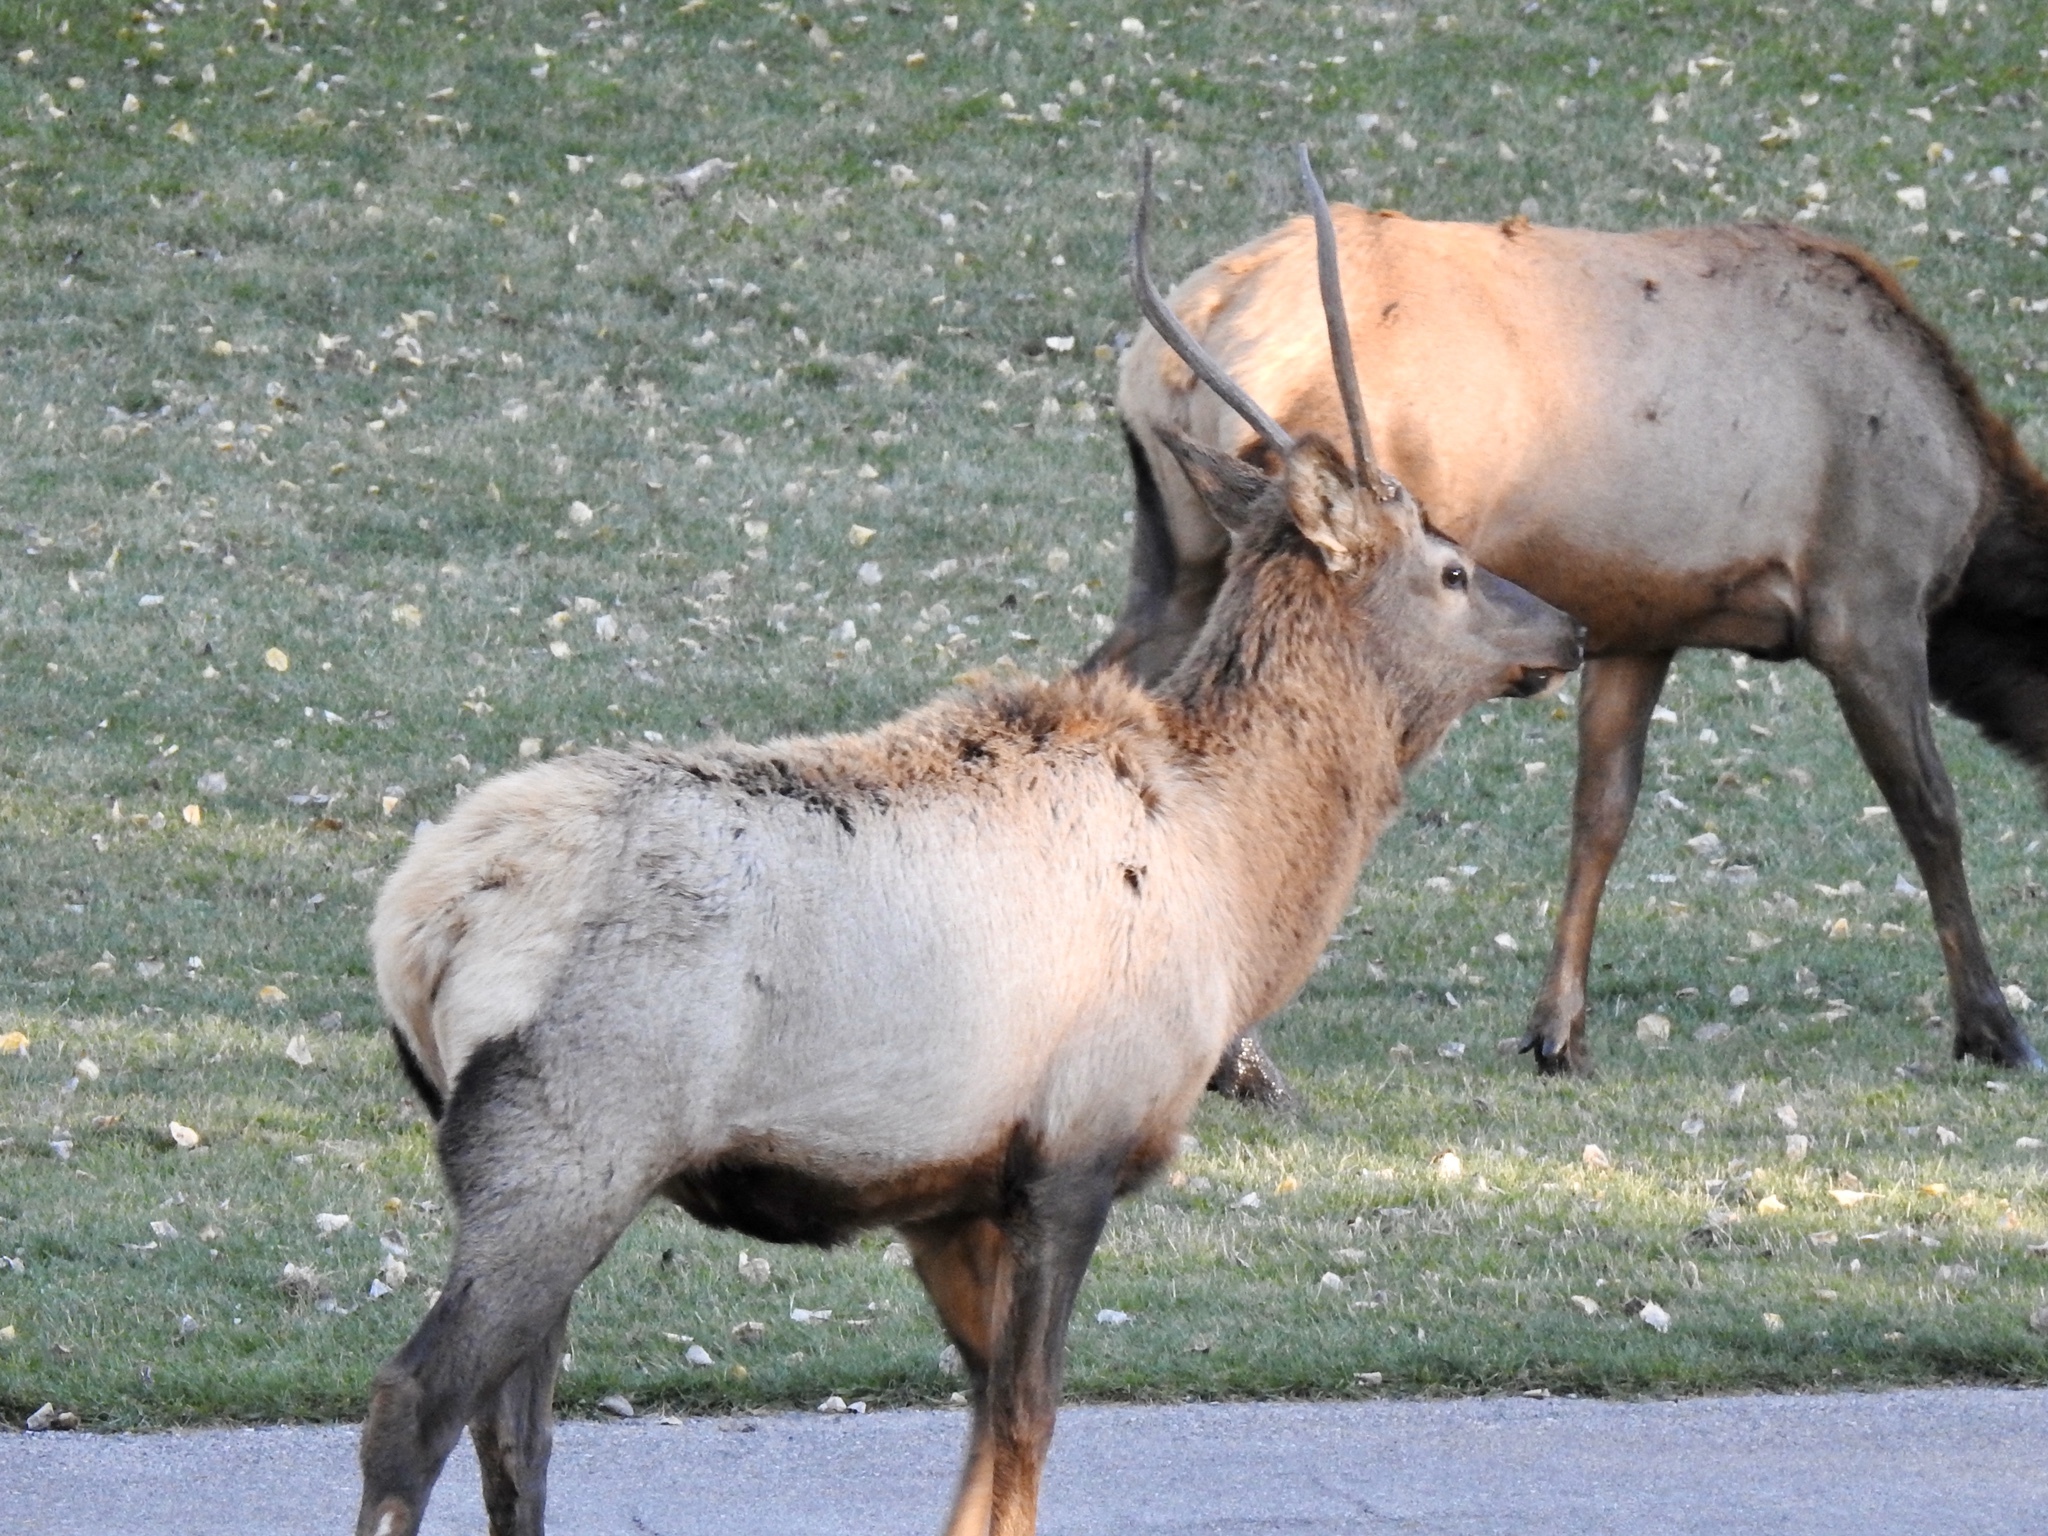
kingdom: Animalia
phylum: Chordata
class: Mammalia
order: Artiodactyla
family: Cervidae
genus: Cervus
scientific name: Cervus elaphus
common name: Red deer
